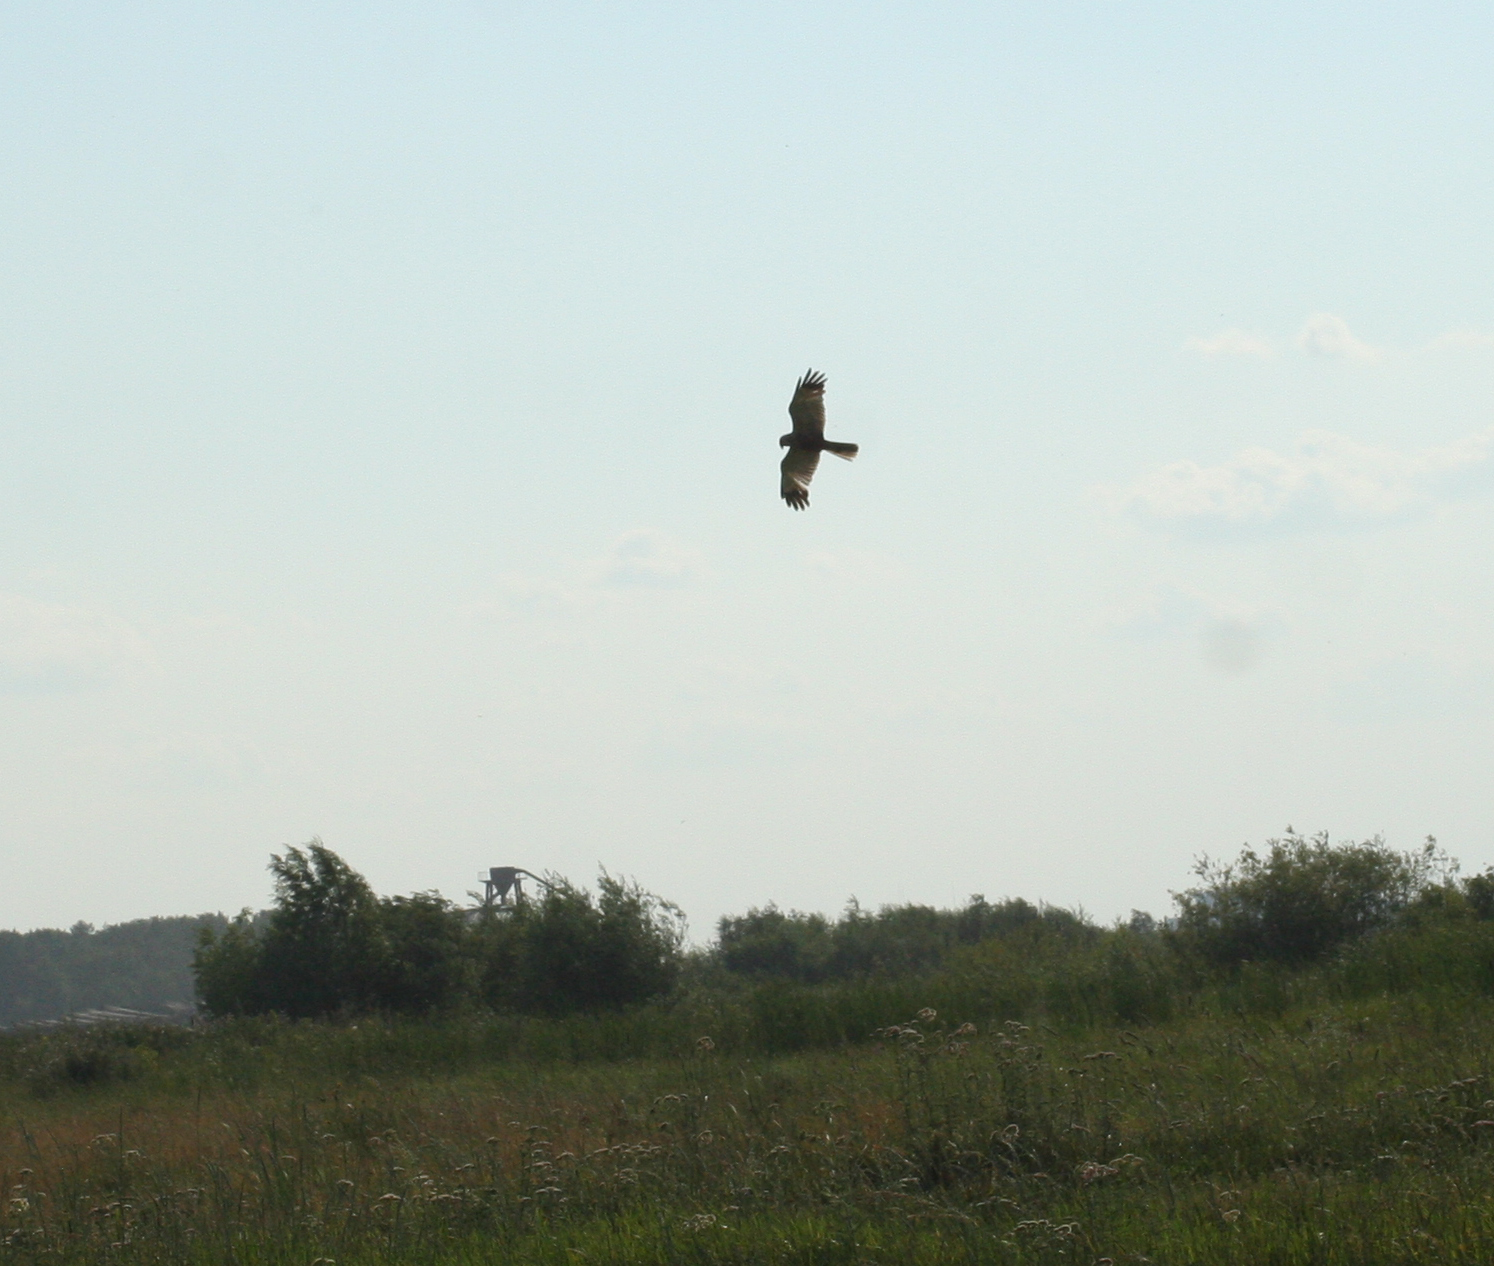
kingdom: Animalia
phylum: Chordata
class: Aves
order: Accipitriformes
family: Accipitridae
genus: Circus
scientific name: Circus aeruginosus
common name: Western marsh harrier
